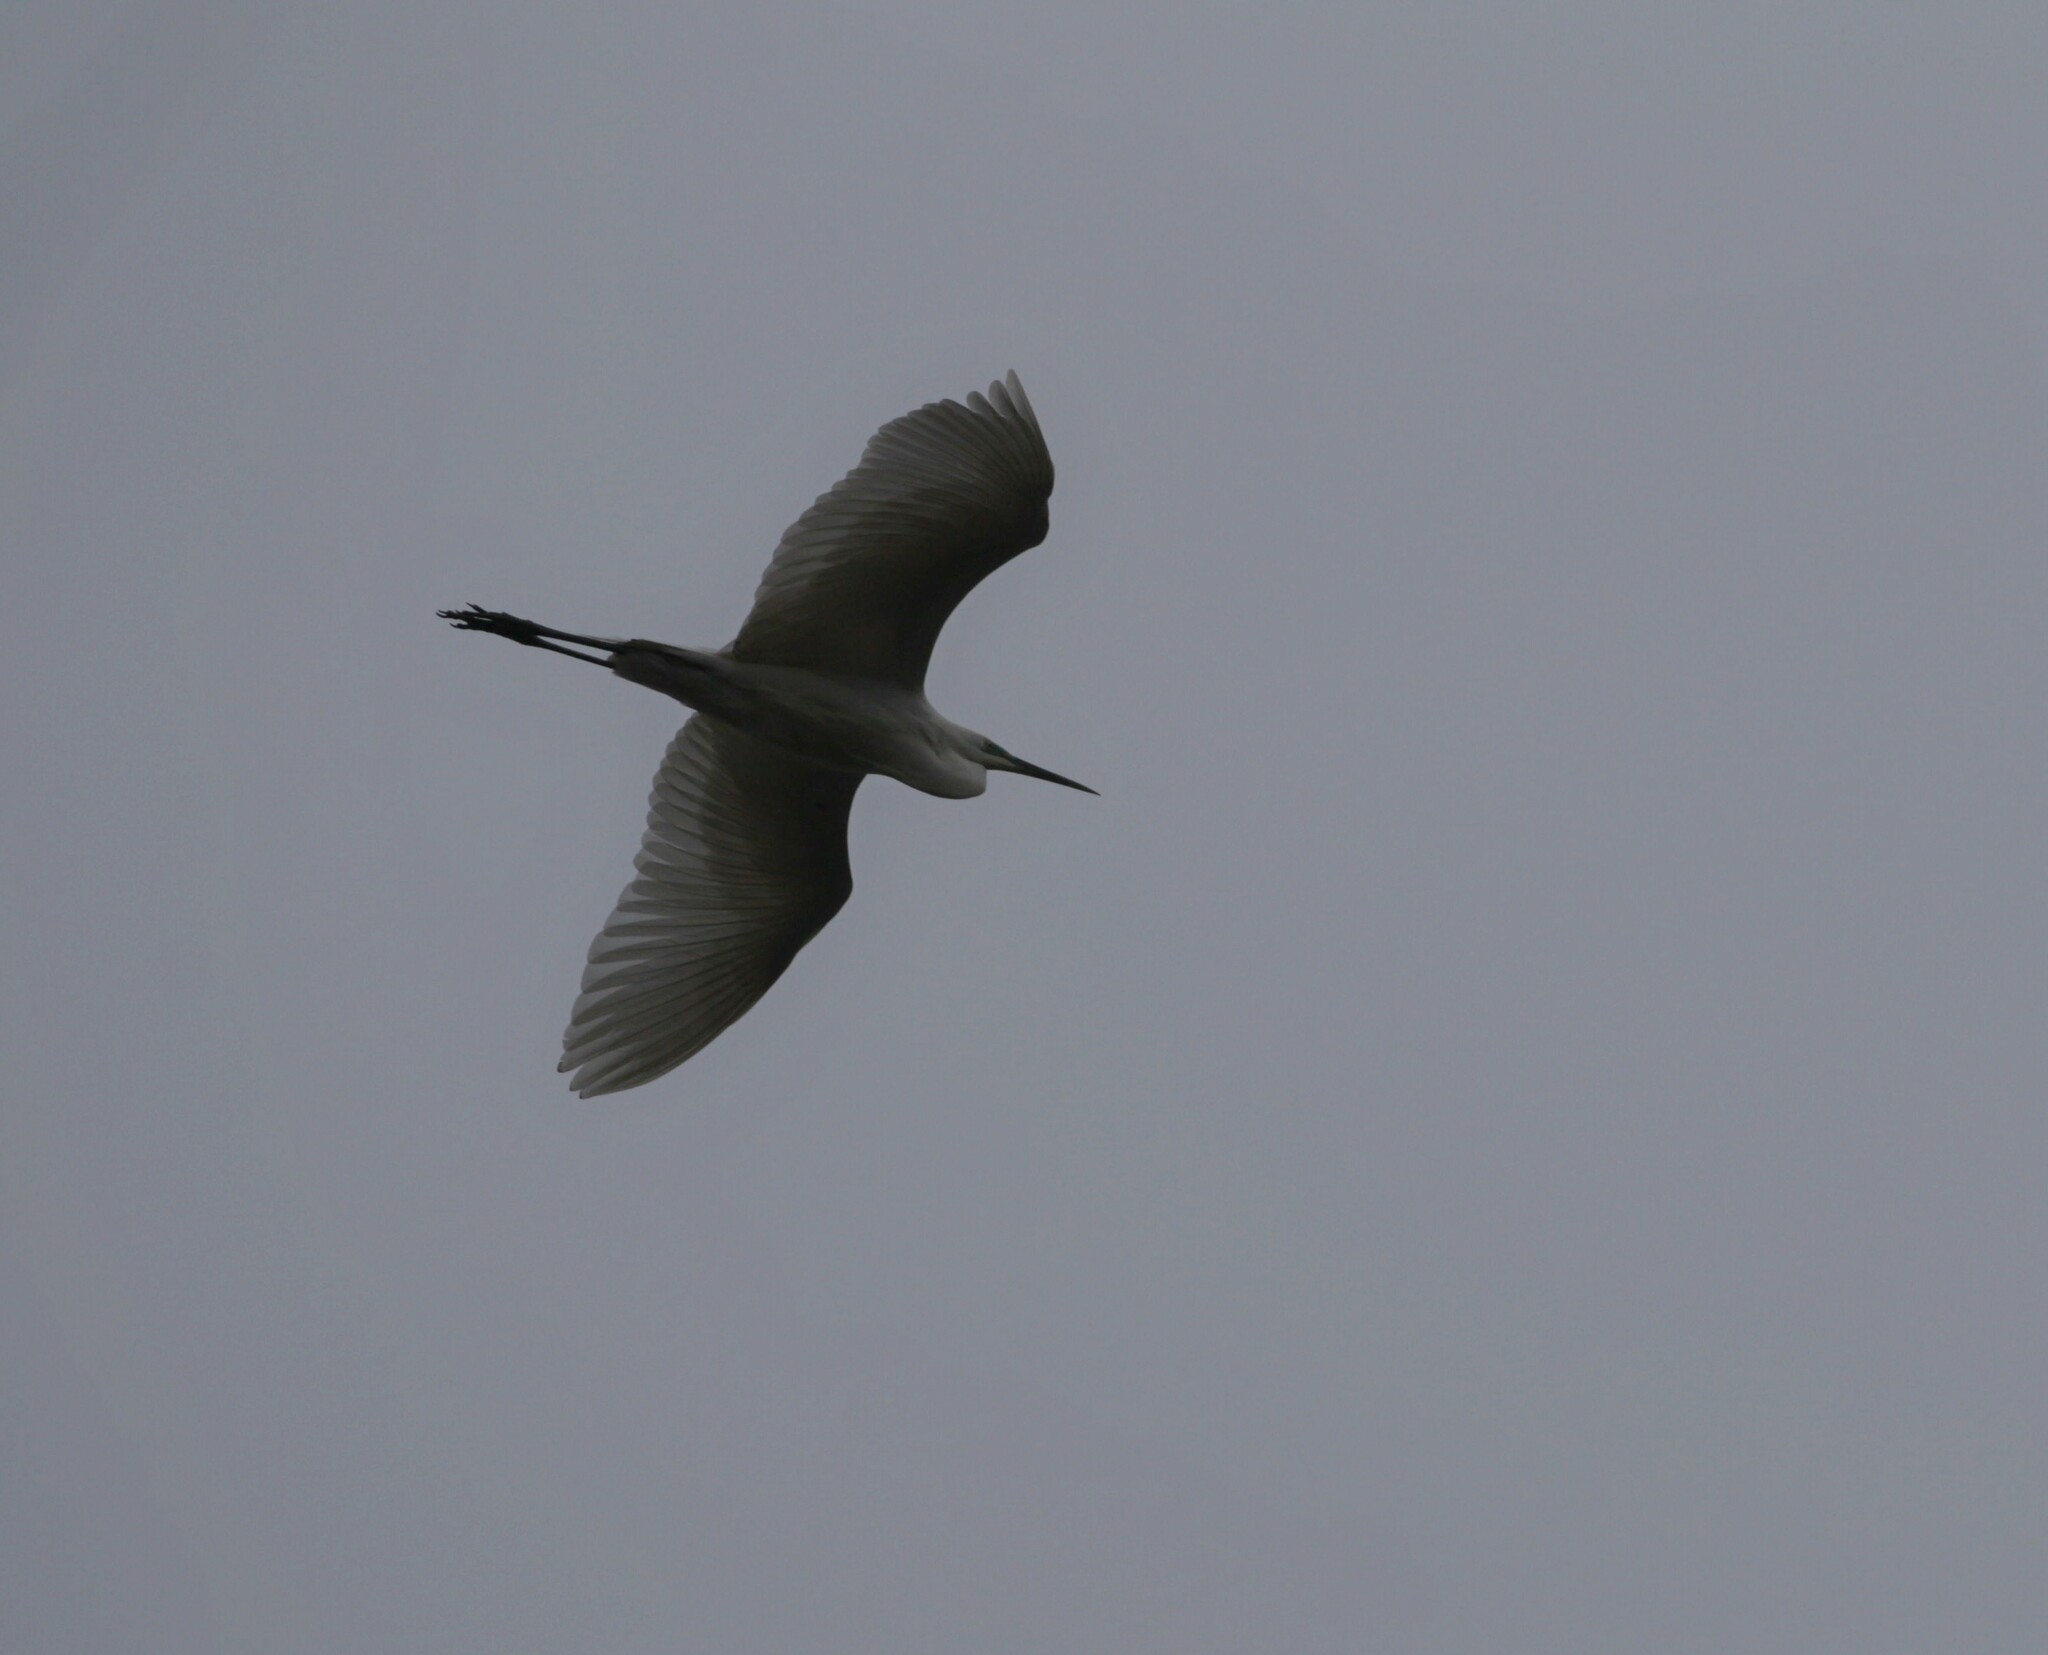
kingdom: Animalia
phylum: Chordata
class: Aves
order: Pelecaniformes
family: Ardeidae
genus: Ardea
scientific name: Ardea alba
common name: Great egret
